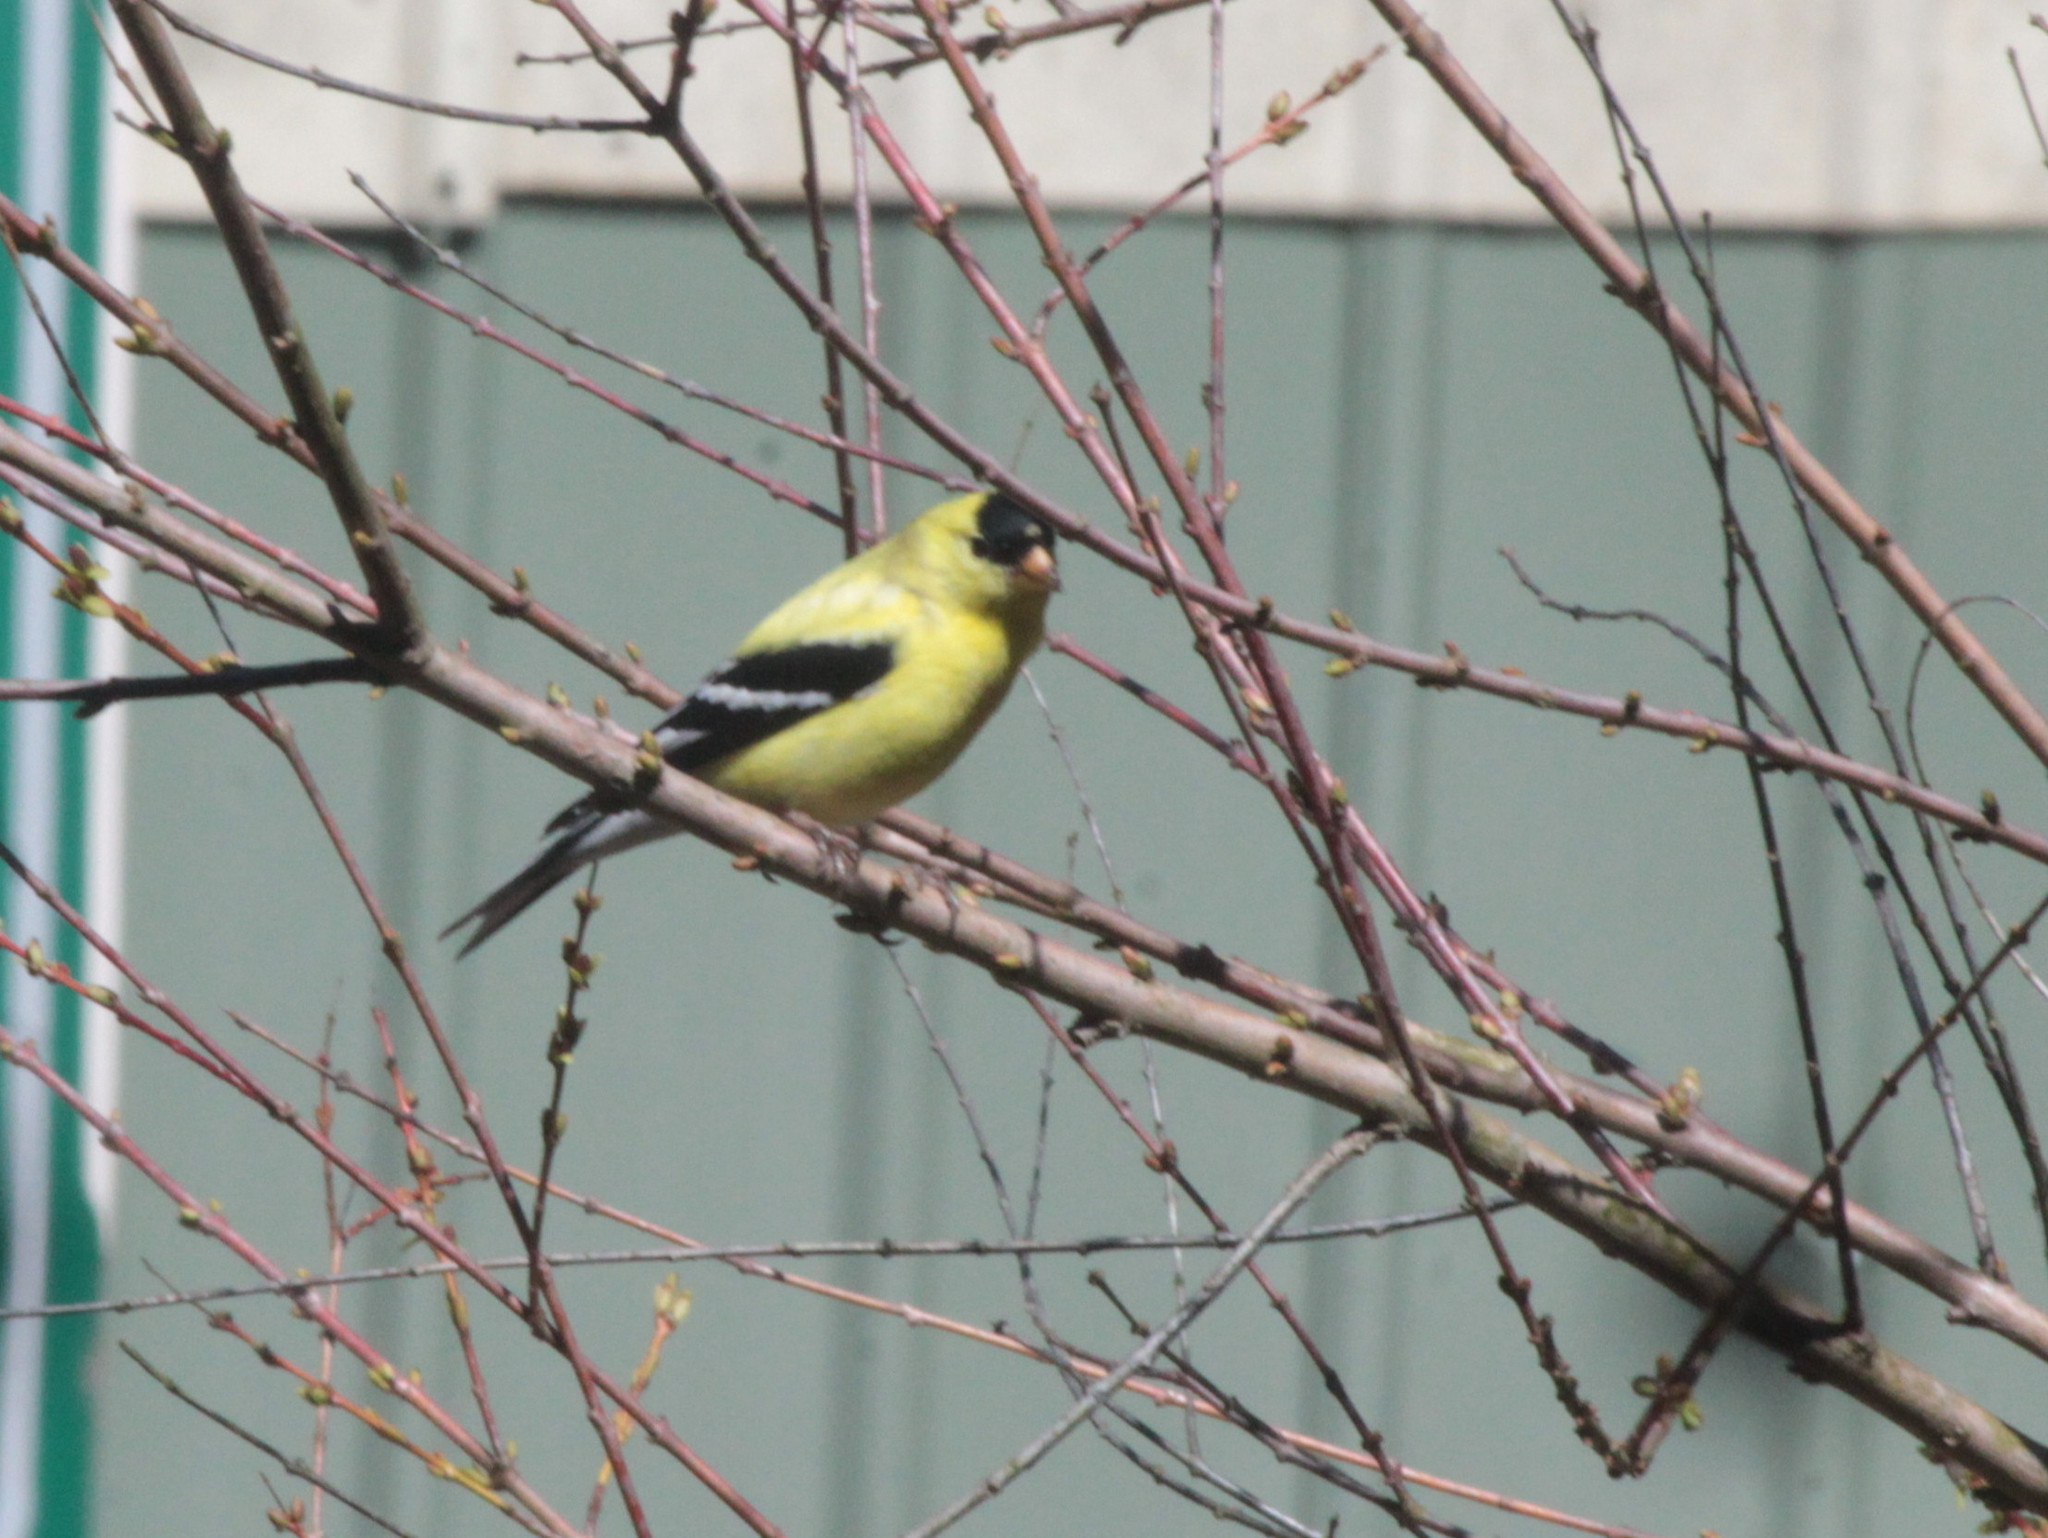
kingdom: Animalia
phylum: Chordata
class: Aves
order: Passeriformes
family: Fringillidae
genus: Spinus
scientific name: Spinus tristis
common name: American goldfinch
